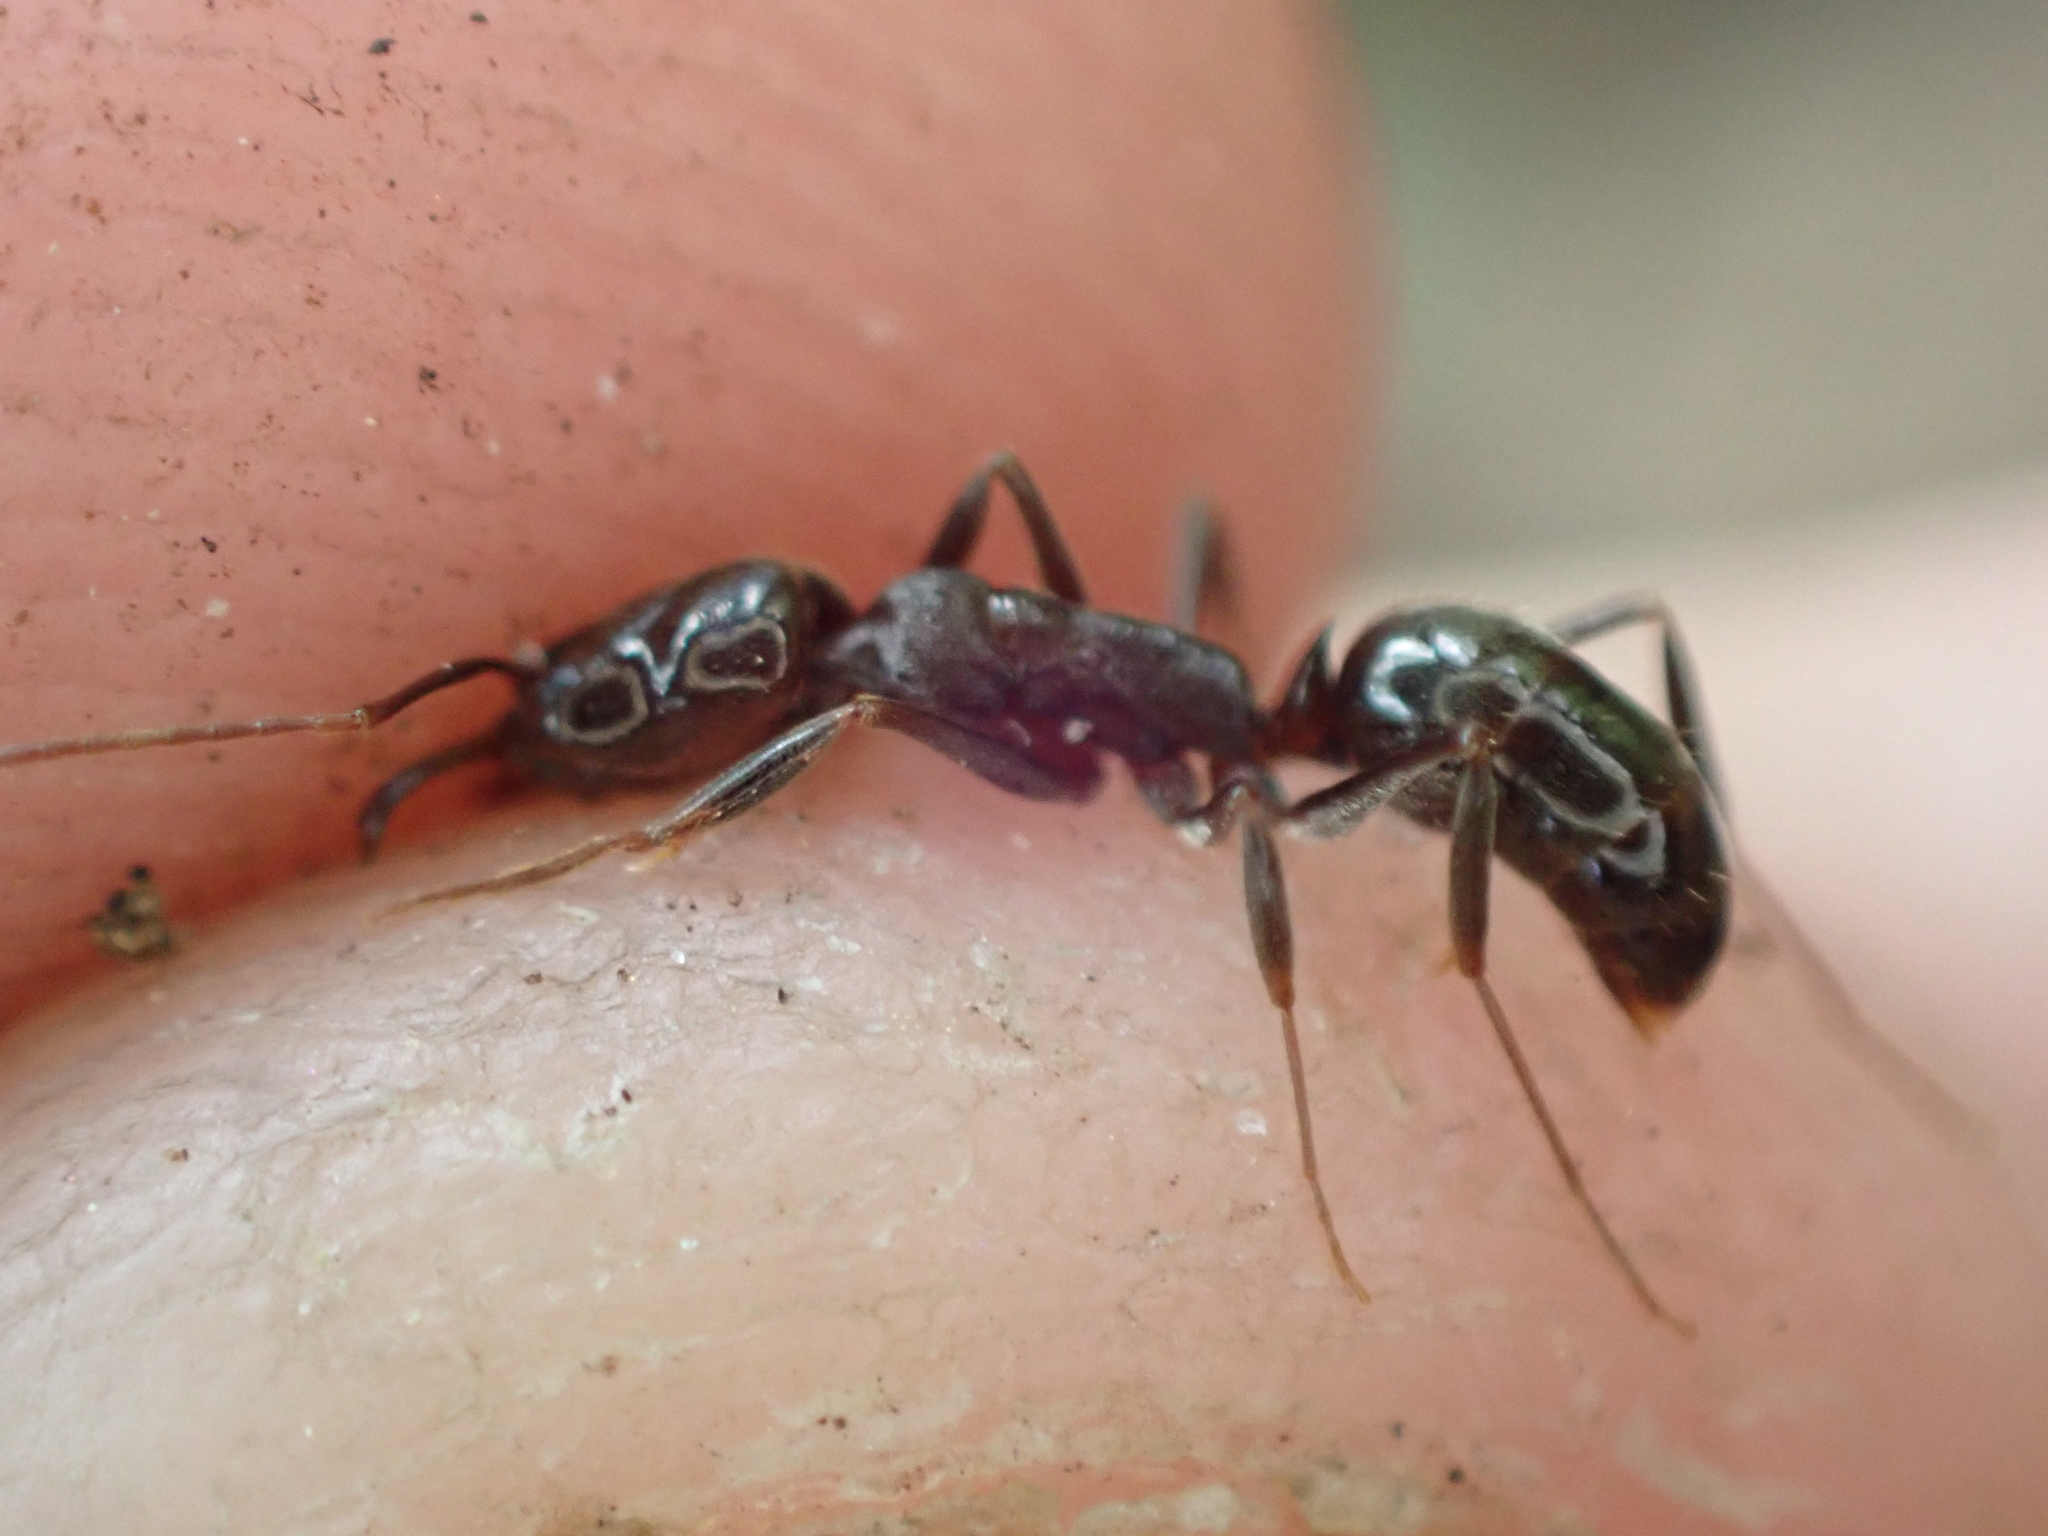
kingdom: Animalia
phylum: Arthropoda
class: Insecta
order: Hymenoptera
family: Formicidae
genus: Odontomachus
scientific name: Odontomachus brunneus
